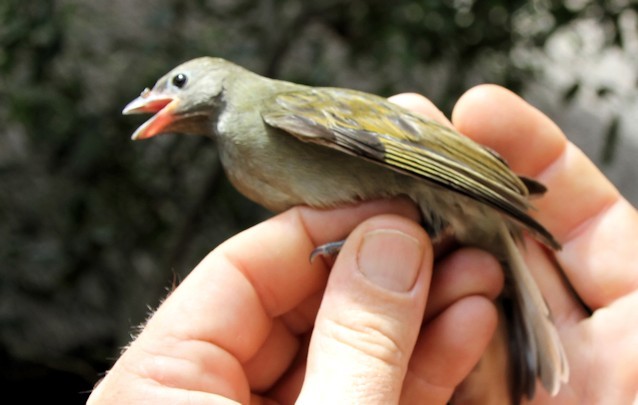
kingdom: Animalia
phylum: Chordata
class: Aves
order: Piciformes
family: Indicatoridae
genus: Indicator
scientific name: Indicator minor
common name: Lesser honeyguide
